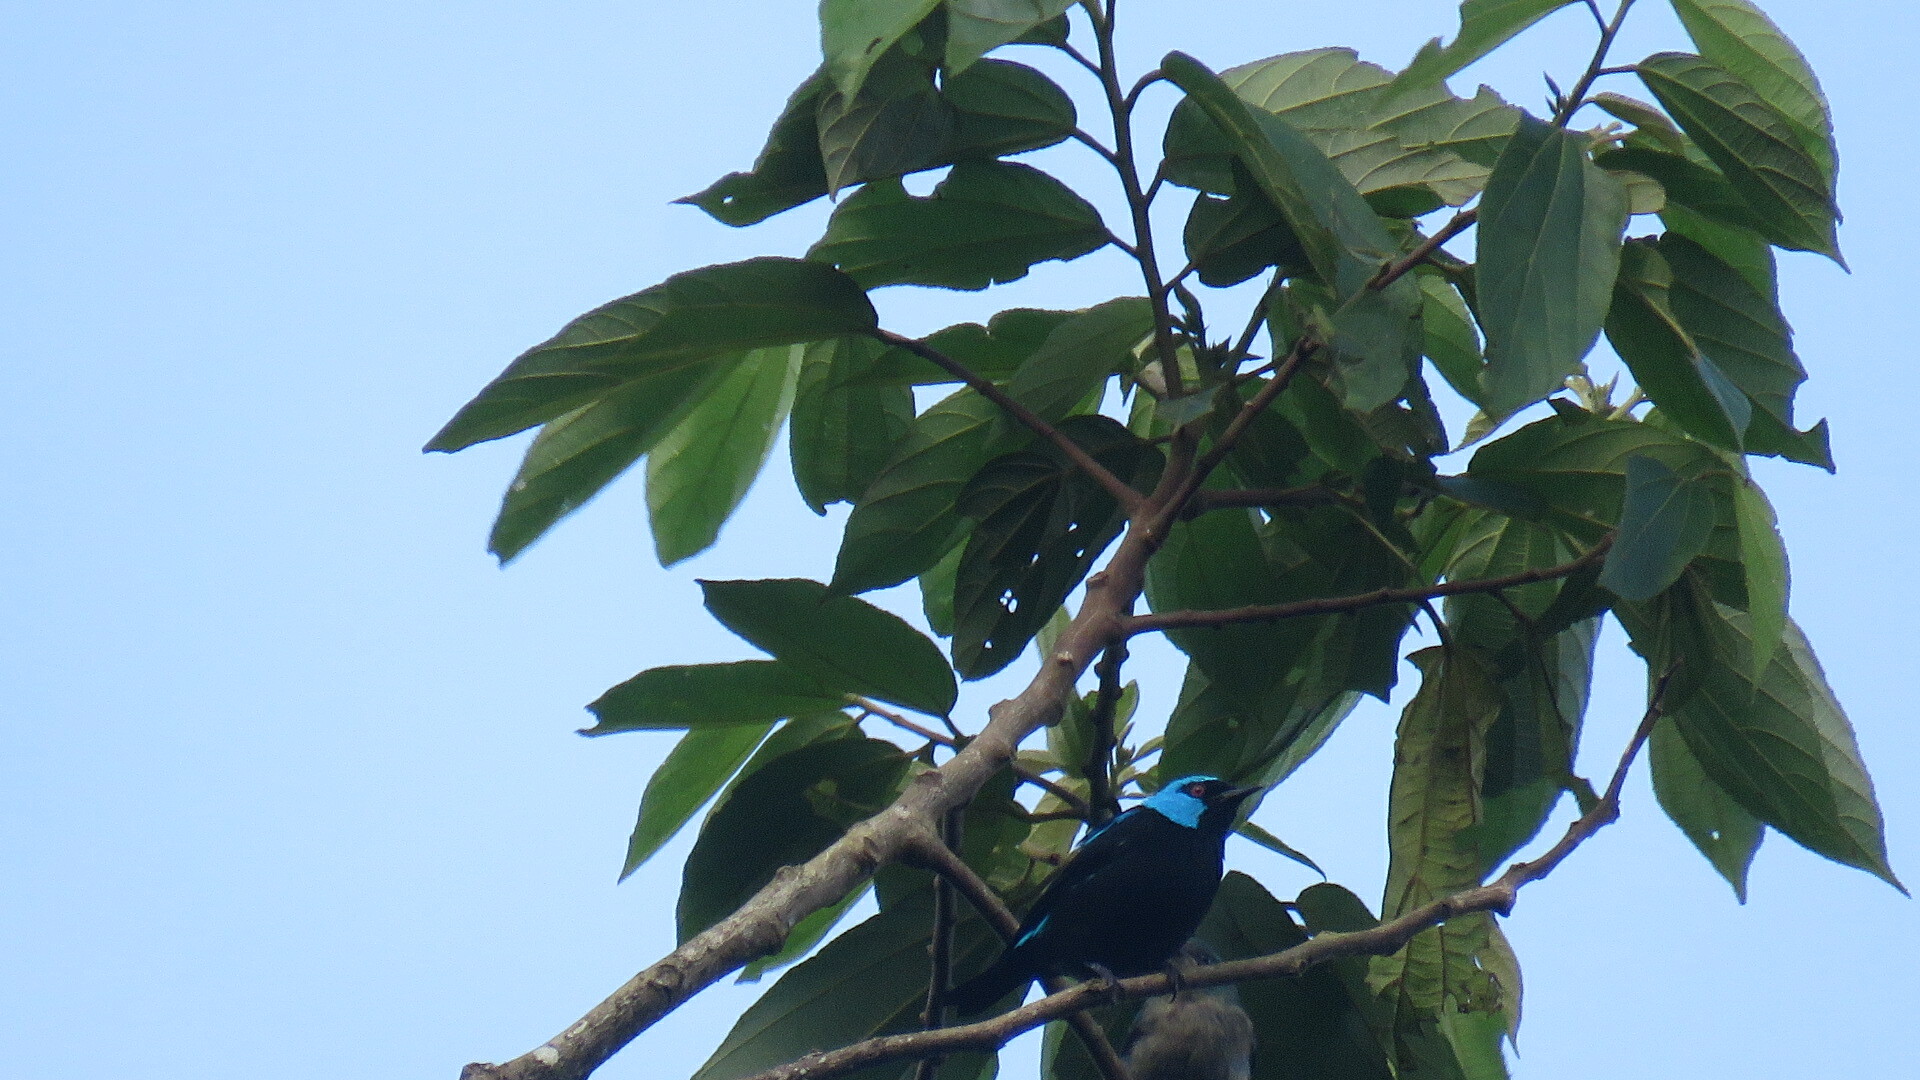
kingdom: Animalia
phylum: Chordata
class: Aves
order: Passeriformes
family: Thraupidae
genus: Dacnis
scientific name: Dacnis venusta
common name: Scarlet-thighed dacnis
